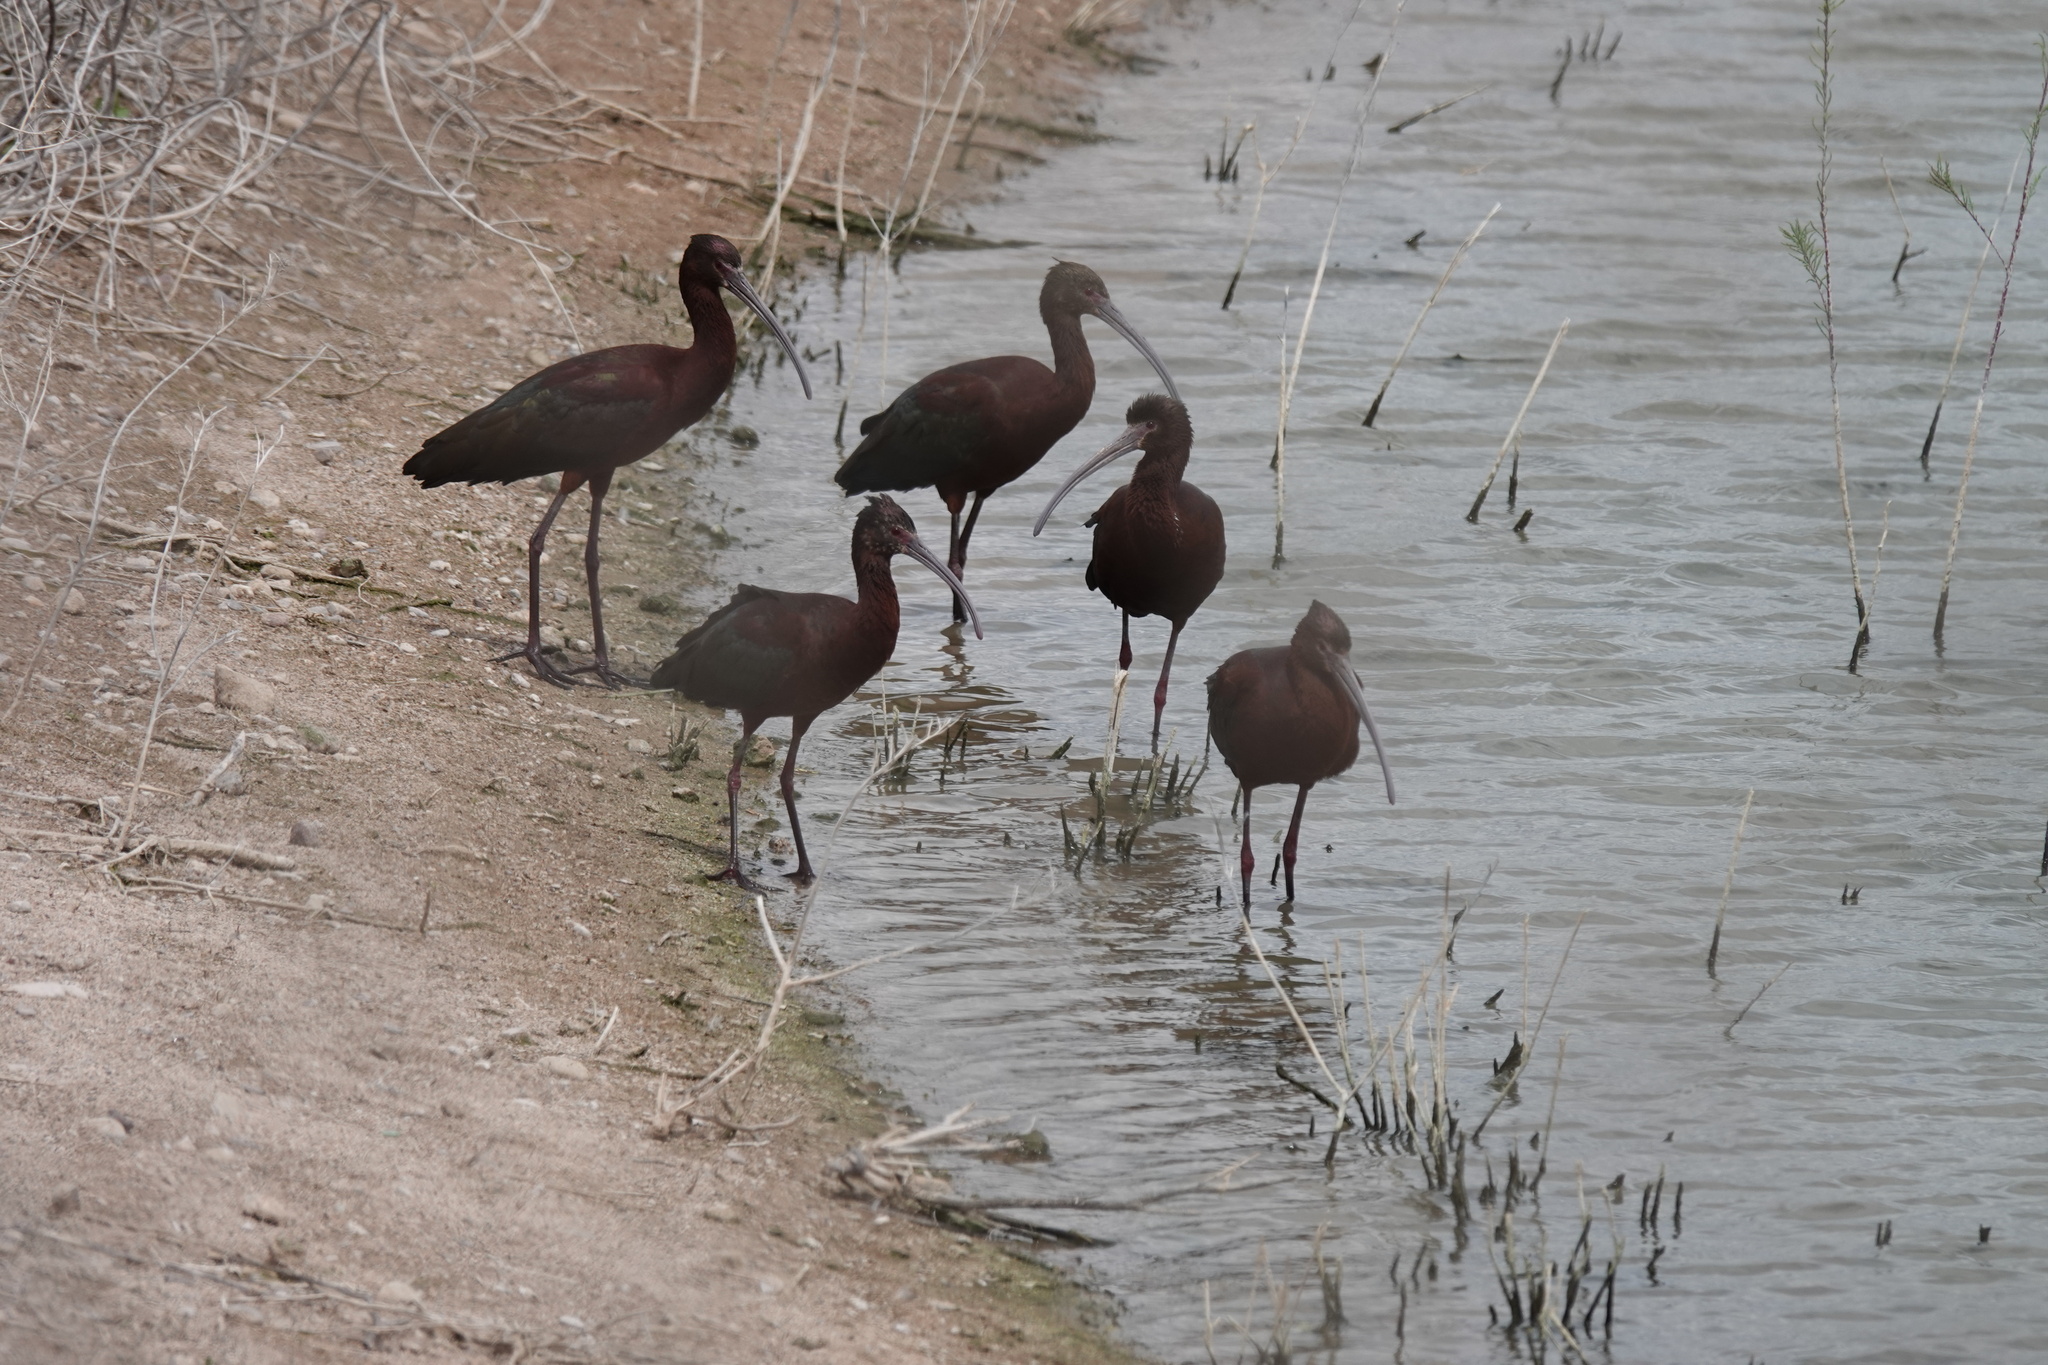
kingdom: Animalia
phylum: Chordata
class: Aves
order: Pelecaniformes
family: Threskiornithidae
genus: Plegadis
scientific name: Plegadis chihi
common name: White-faced ibis
